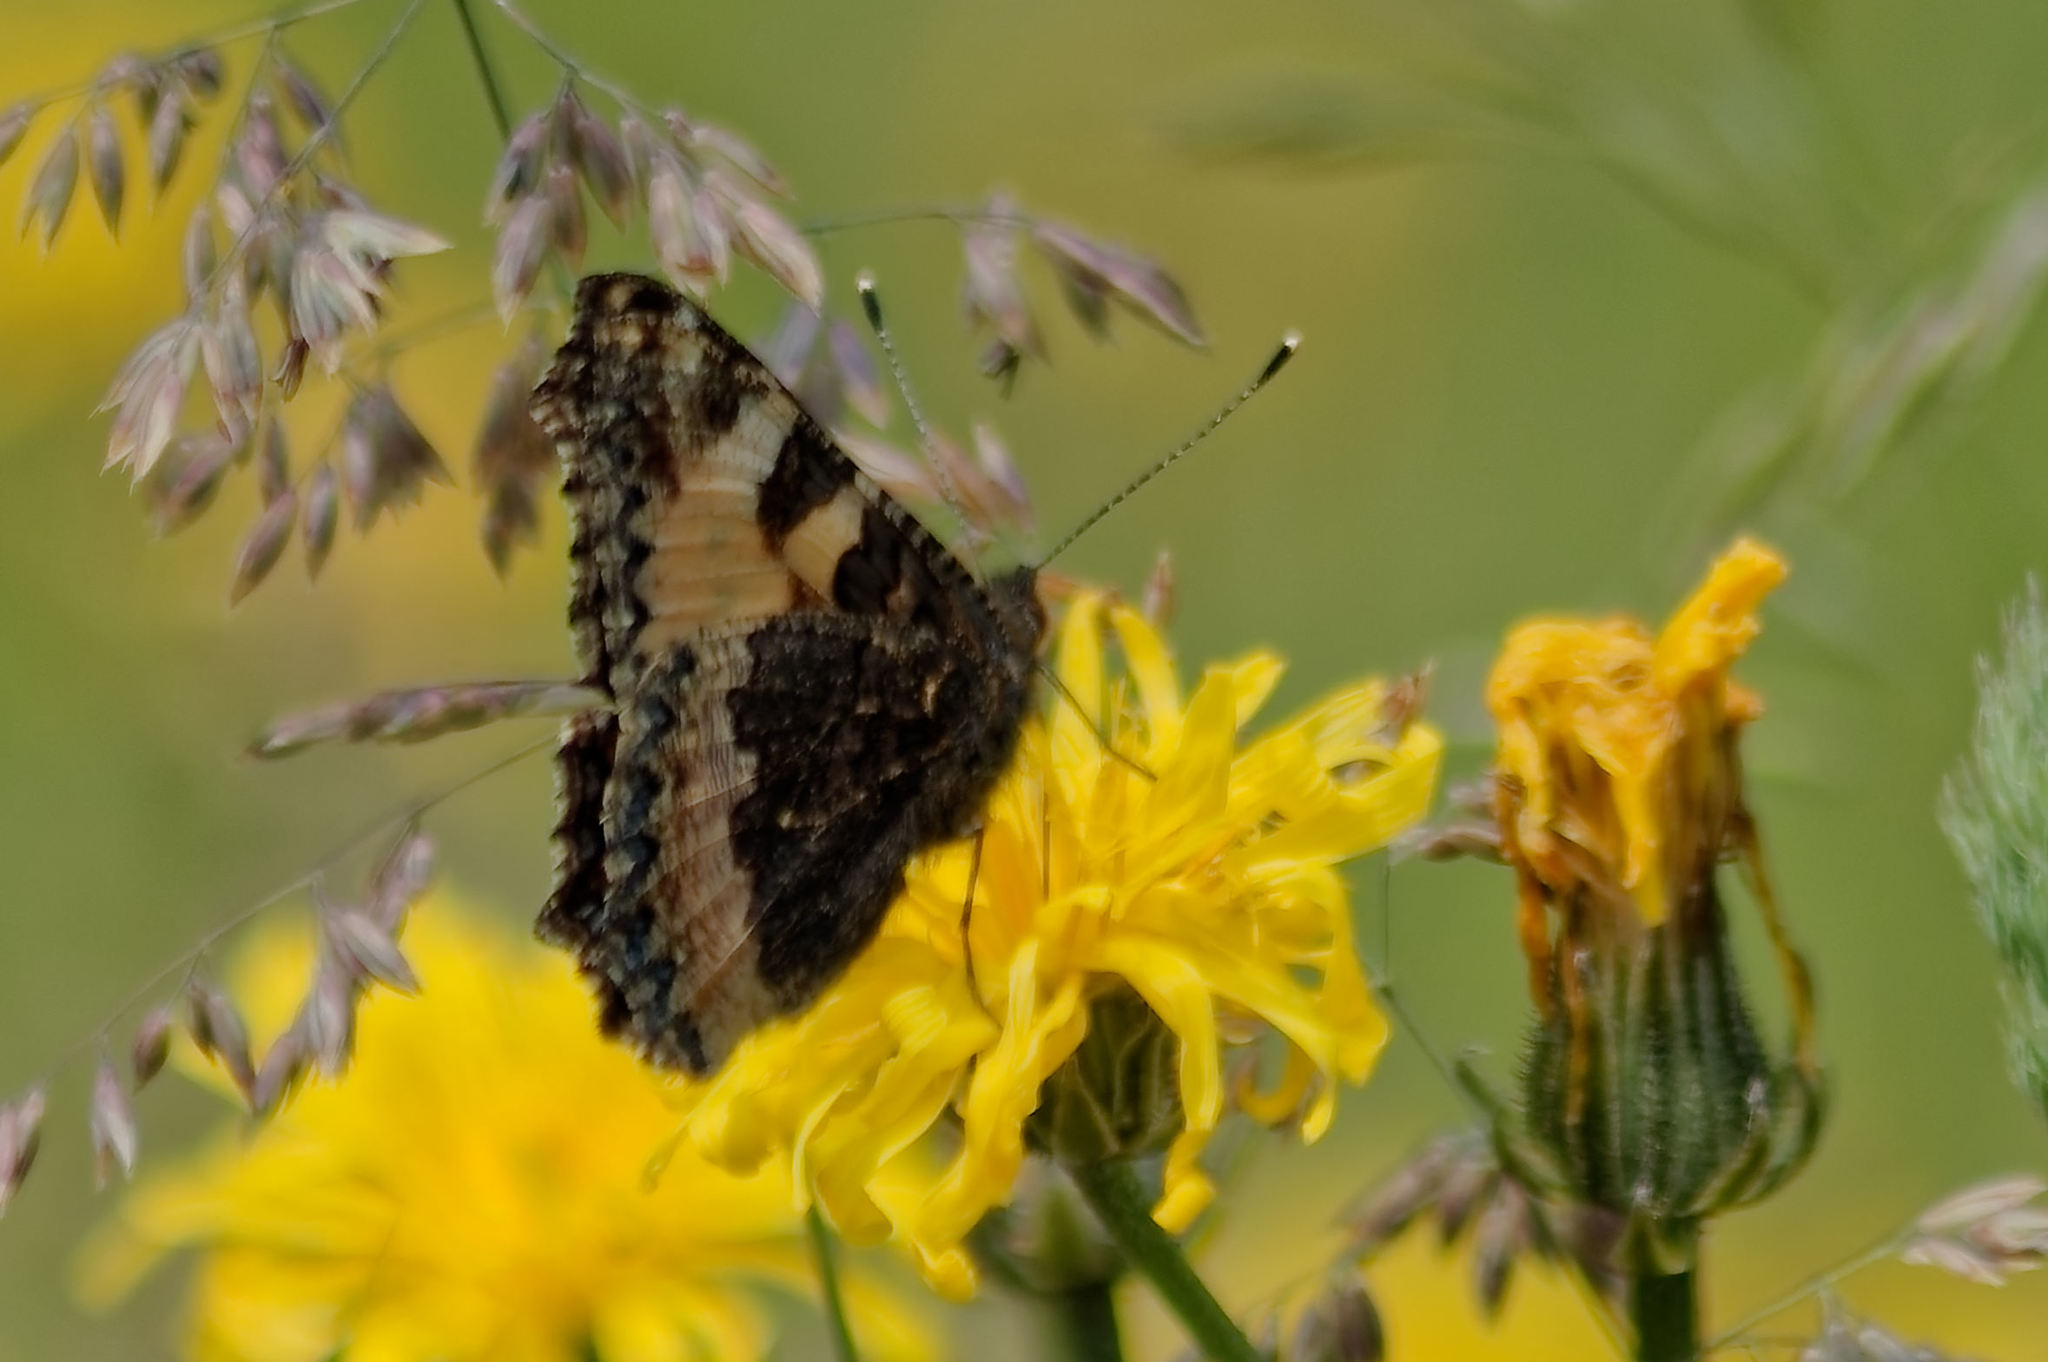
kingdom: Animalia
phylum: Arthropoda
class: Insecta
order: Lepidoptera
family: Nymphalidae
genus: Aglais
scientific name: Aglais urticae
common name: Small tortoiseshell
